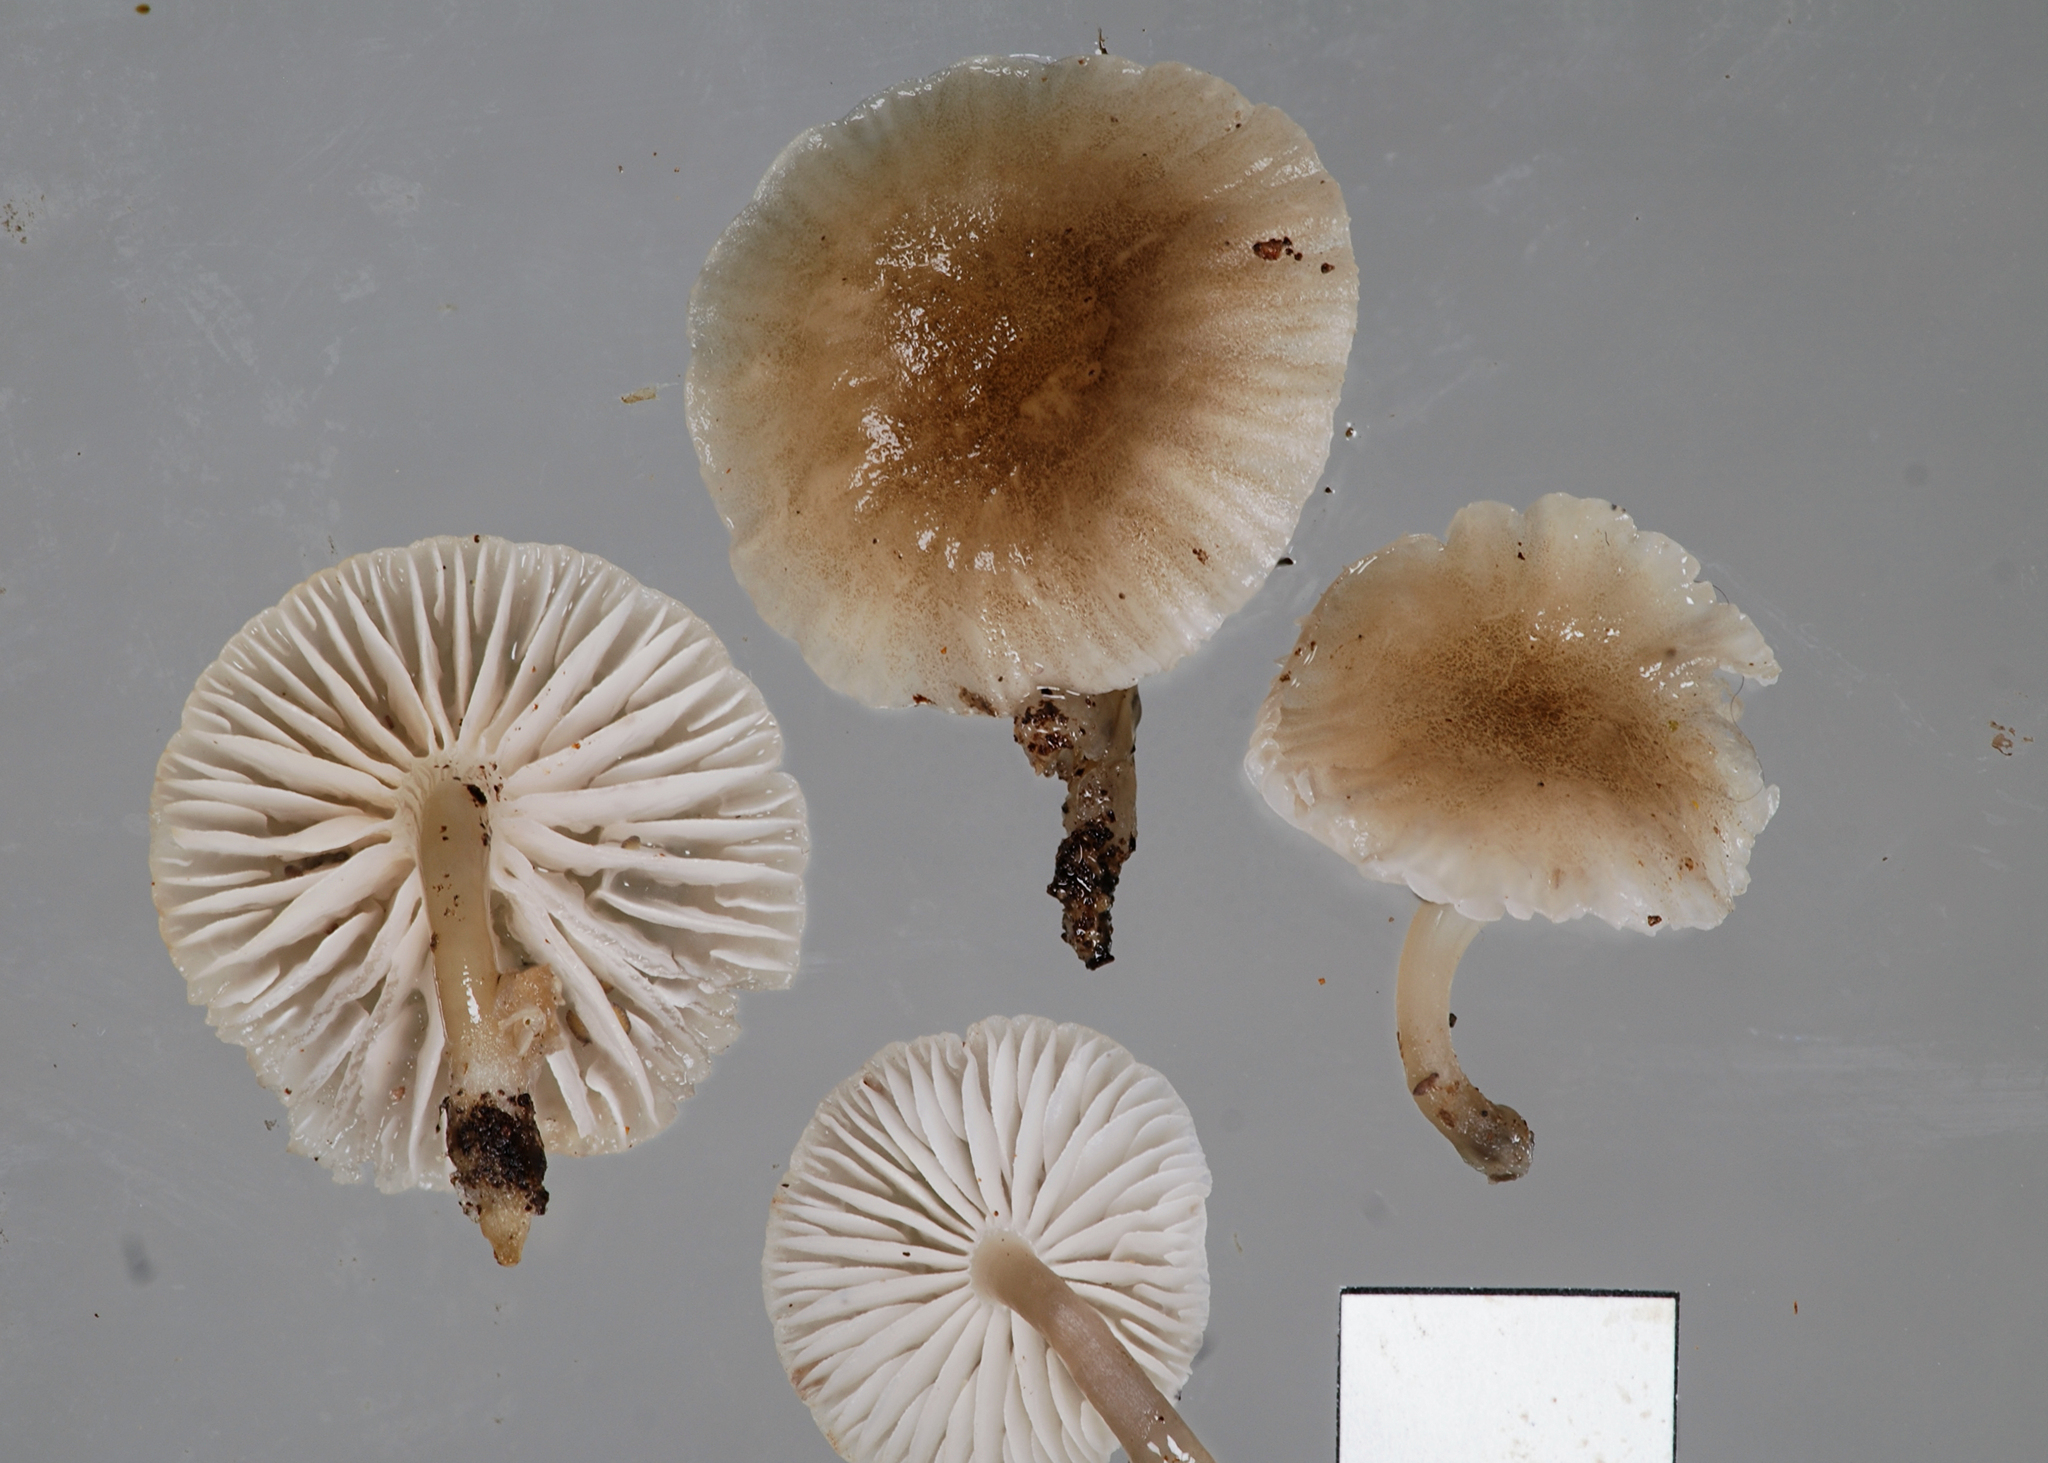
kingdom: Fungi
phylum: Basidiomycota
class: Agaricomycetes
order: Agaricales
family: Mycenaceae
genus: Roridomyces
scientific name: Roridomyces austrororidus
